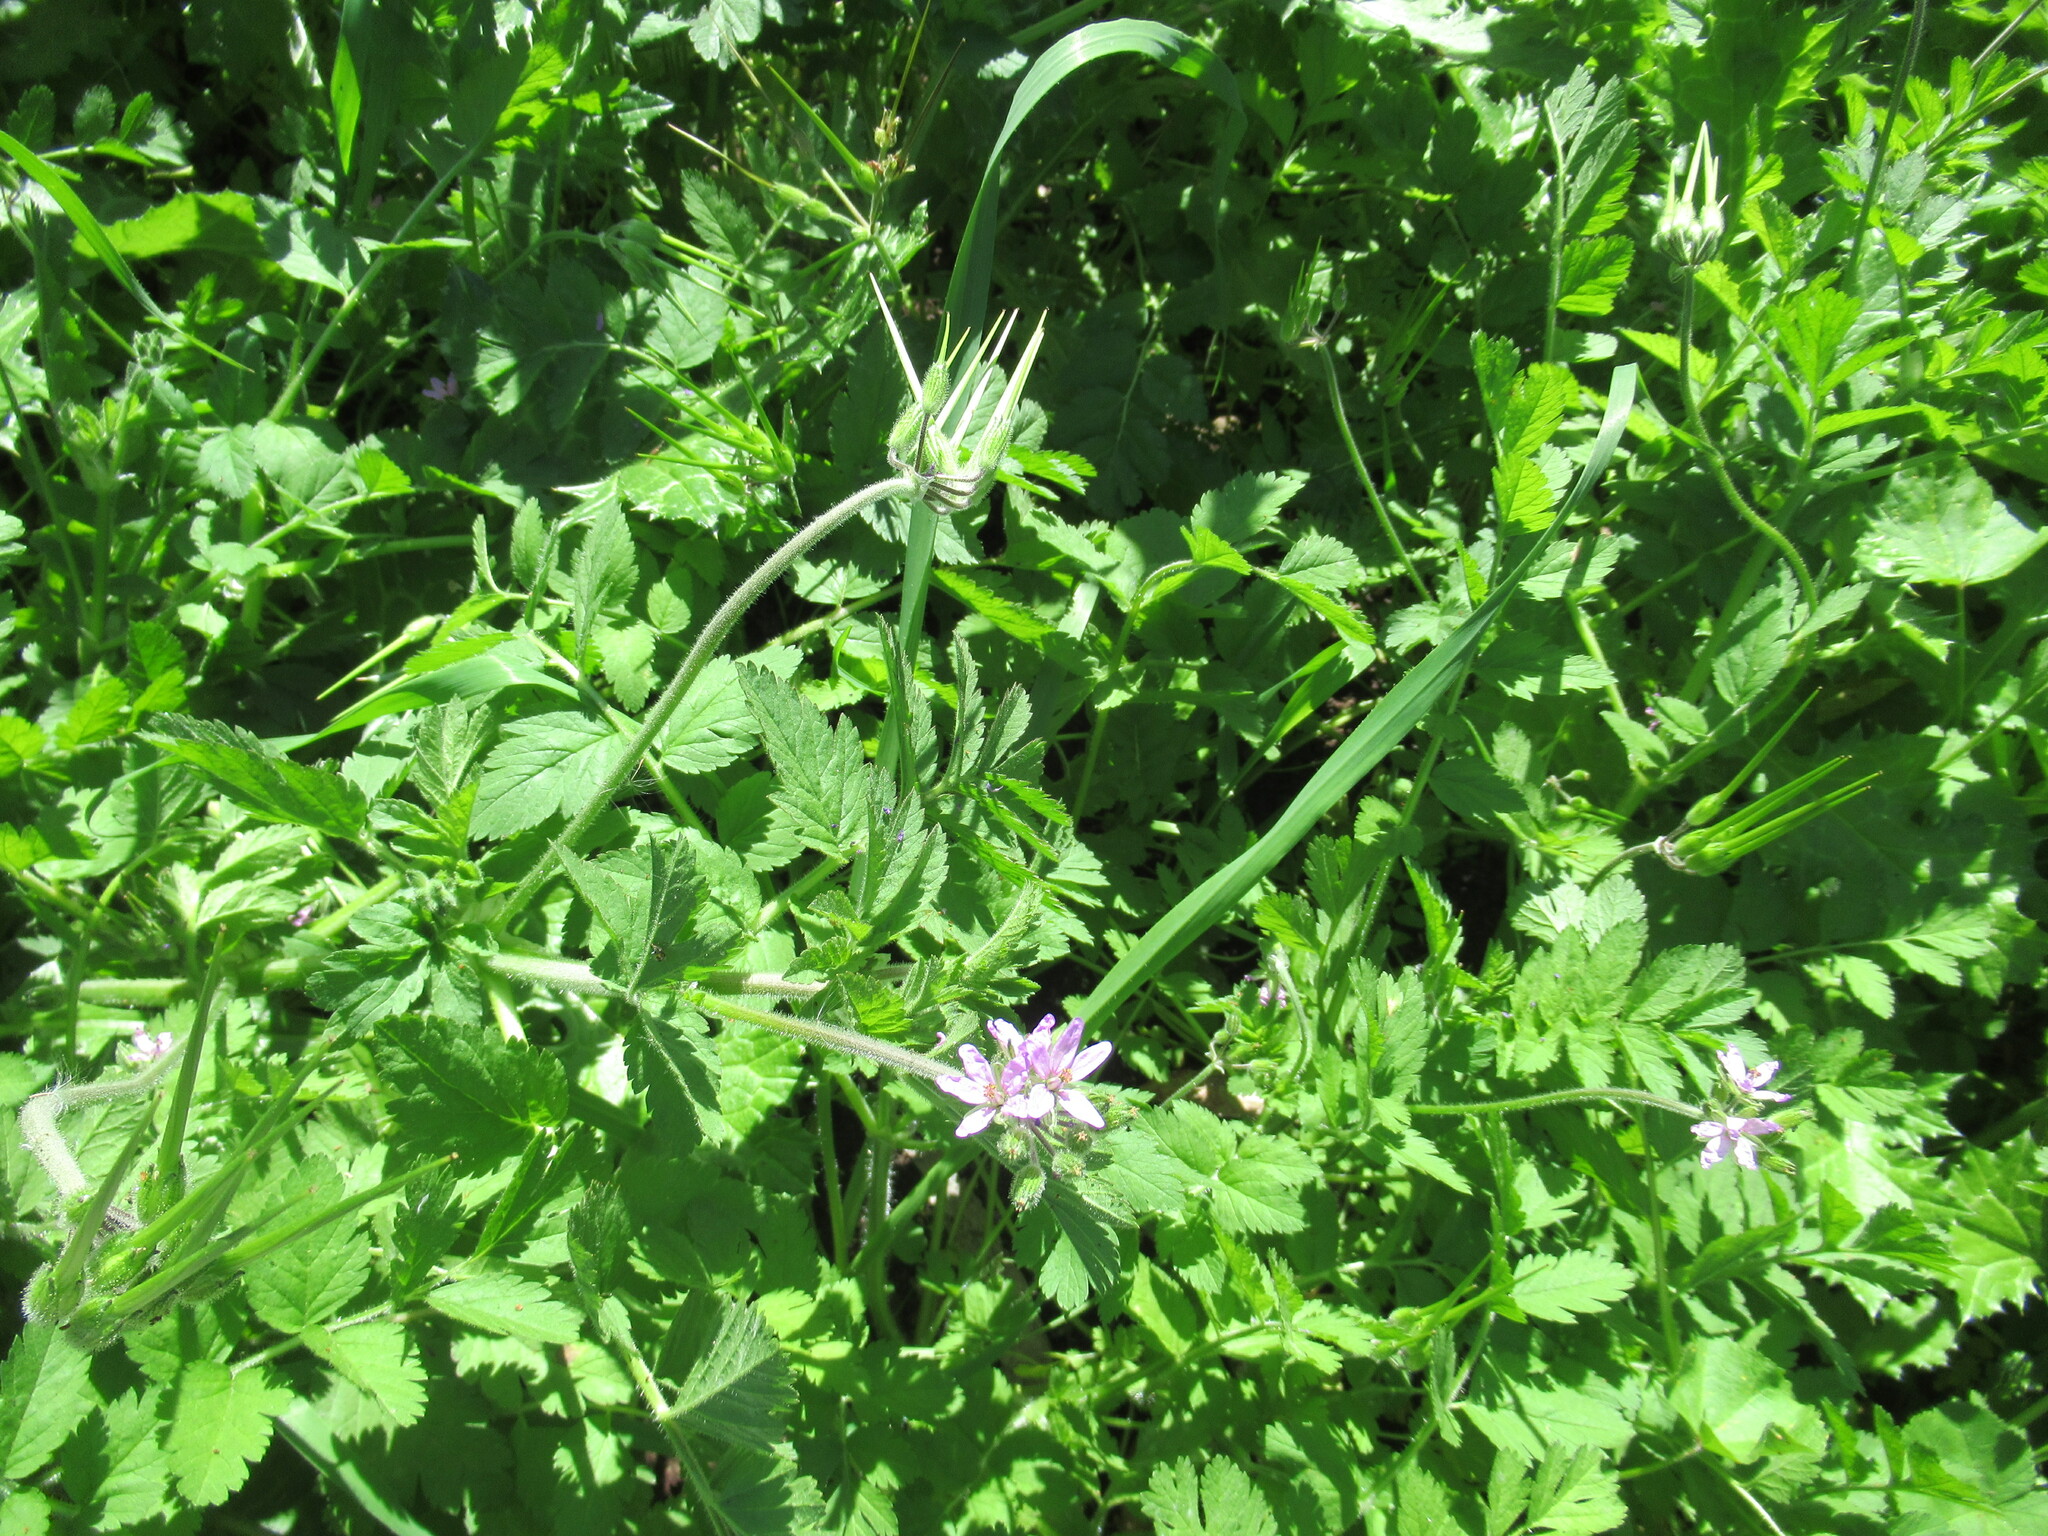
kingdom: Plantae
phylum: Tracheophyta
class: Magnoliopsida
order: Geraniales
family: Geraniaceae
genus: Erodium
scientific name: Erodium moschatum
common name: Musk stork's-bill
